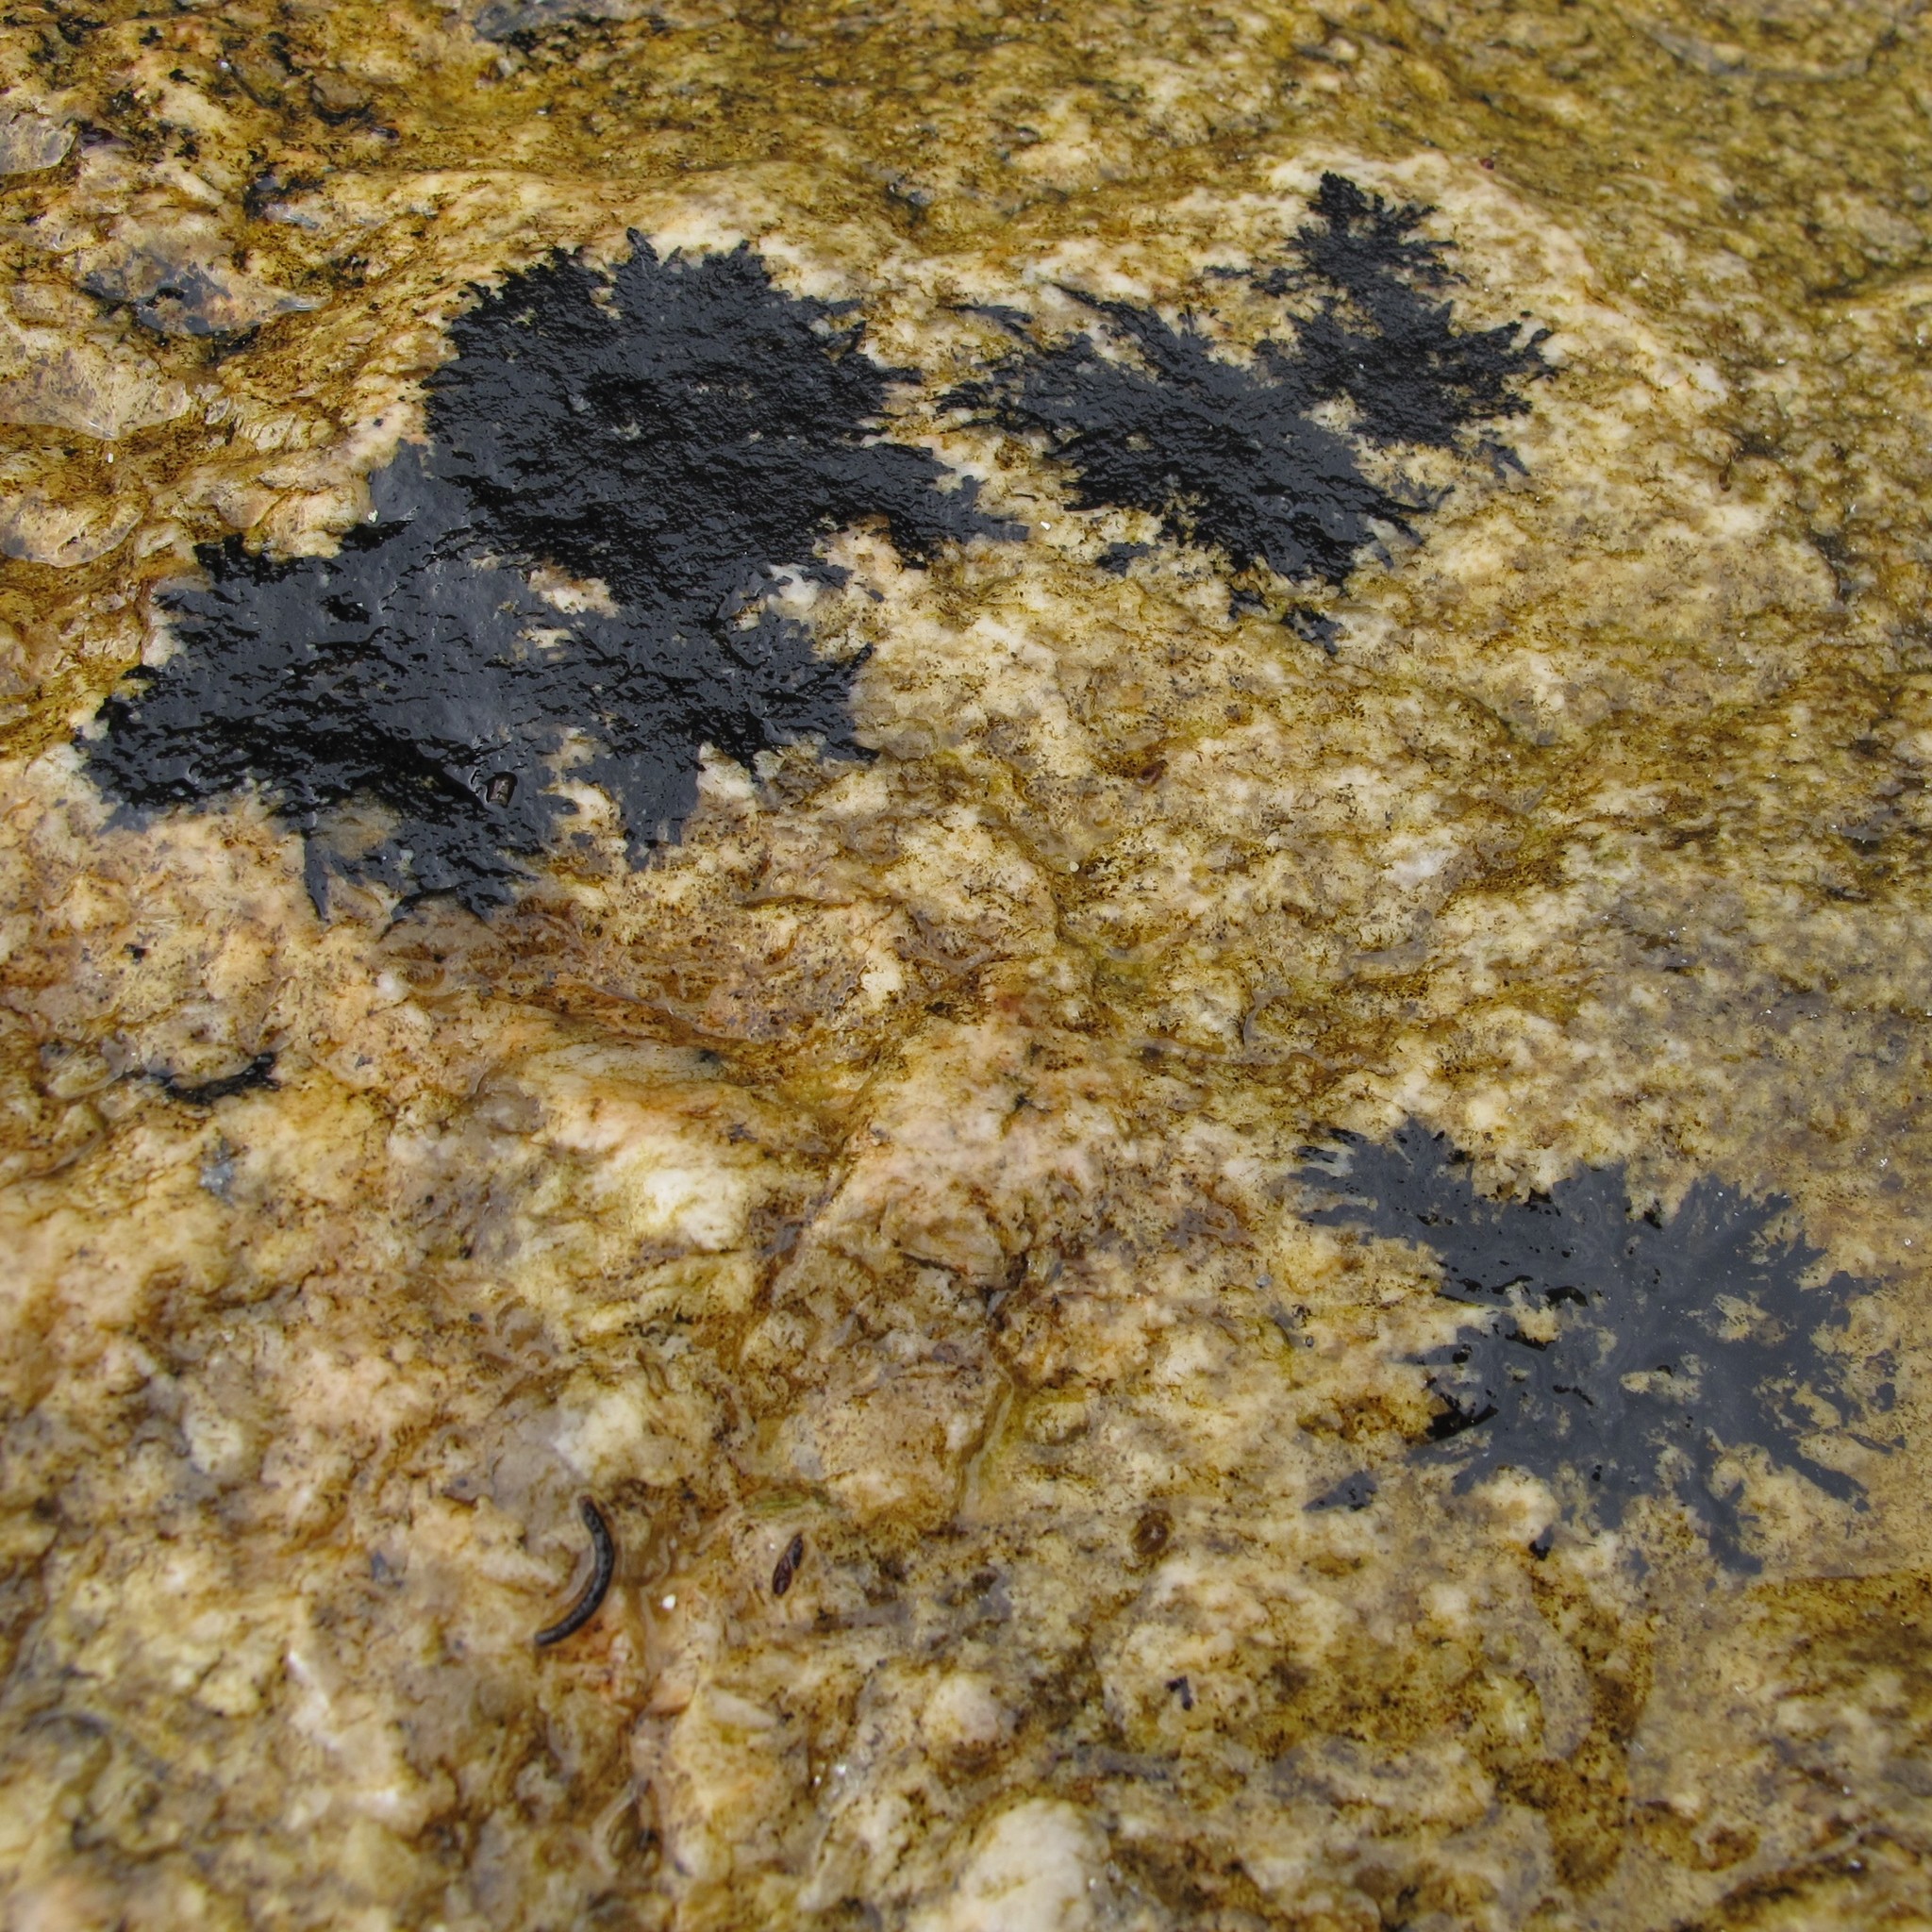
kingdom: Fungi
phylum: Ascomycota
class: Eurotiomycetes
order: Verrucariales
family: Verrucariaceae
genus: Hydropunctaria
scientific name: Hydropunctaria maura
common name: Tar lichen
